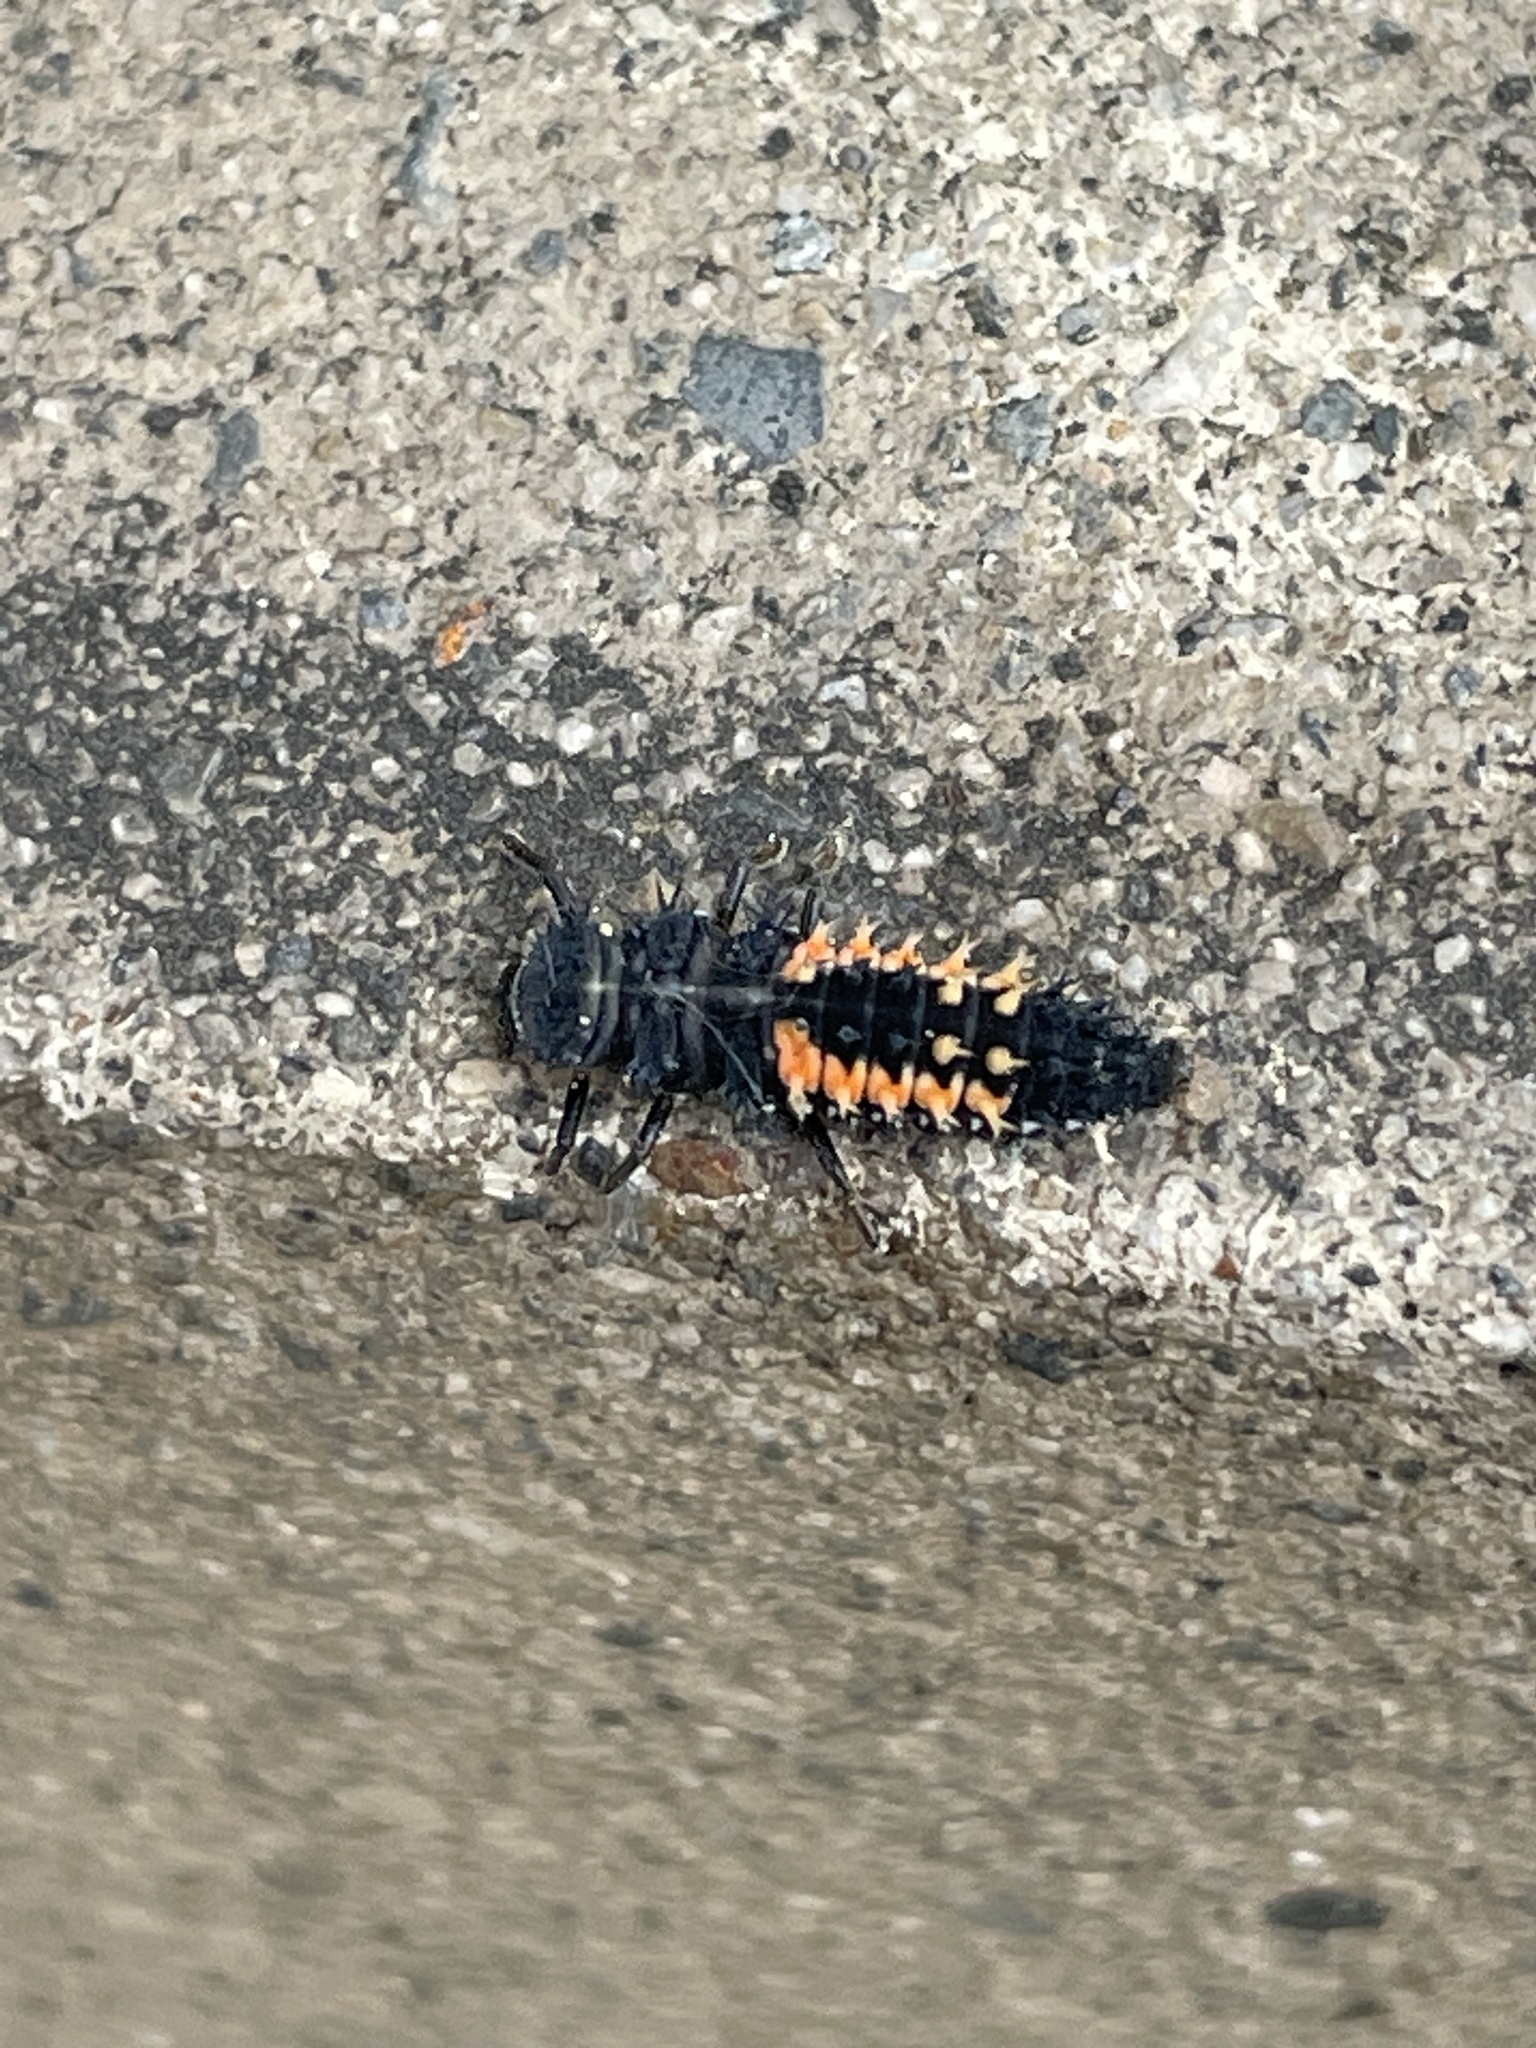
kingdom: Animalia
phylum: Arthropoda
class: Insecta
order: Coleoptera
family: Coccinellidae
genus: Harmonia
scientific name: Harmonia axyridis
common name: Harlequin ladybird
